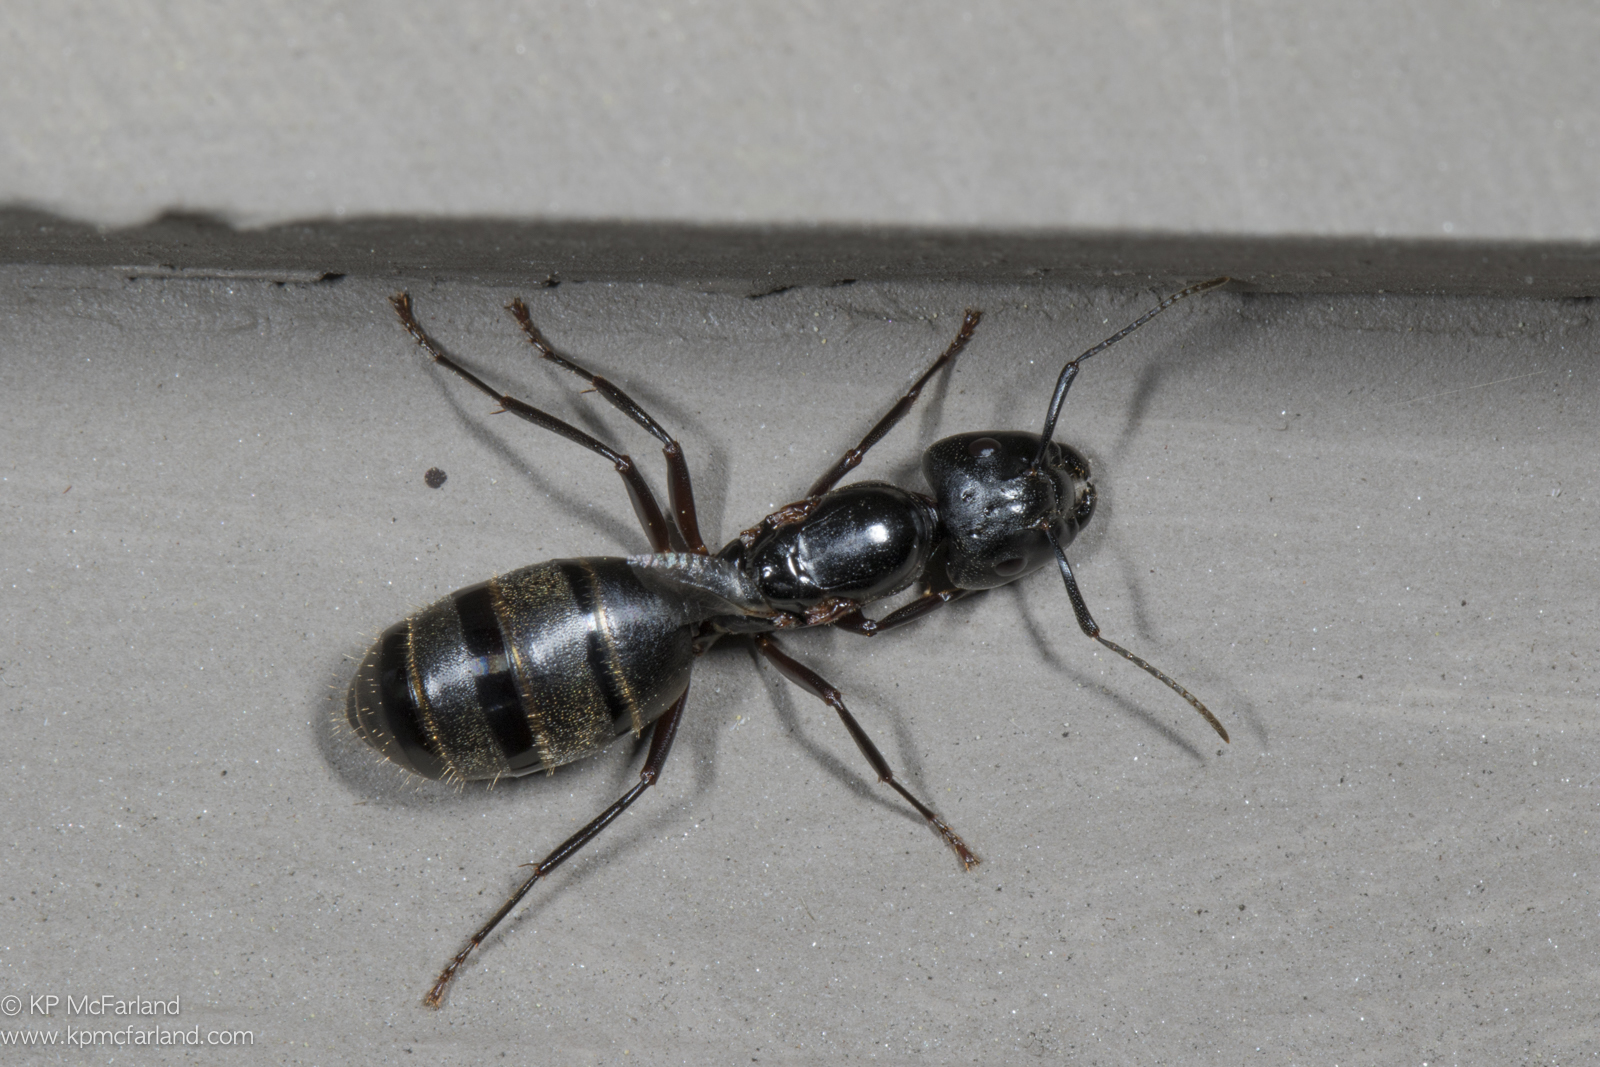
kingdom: Animalia
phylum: Arthropoda
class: Insecta
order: Hymenoptera
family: Formicidae
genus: Camponotus
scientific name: Camponotus pennsylvanicus
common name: Black carpenter ant
